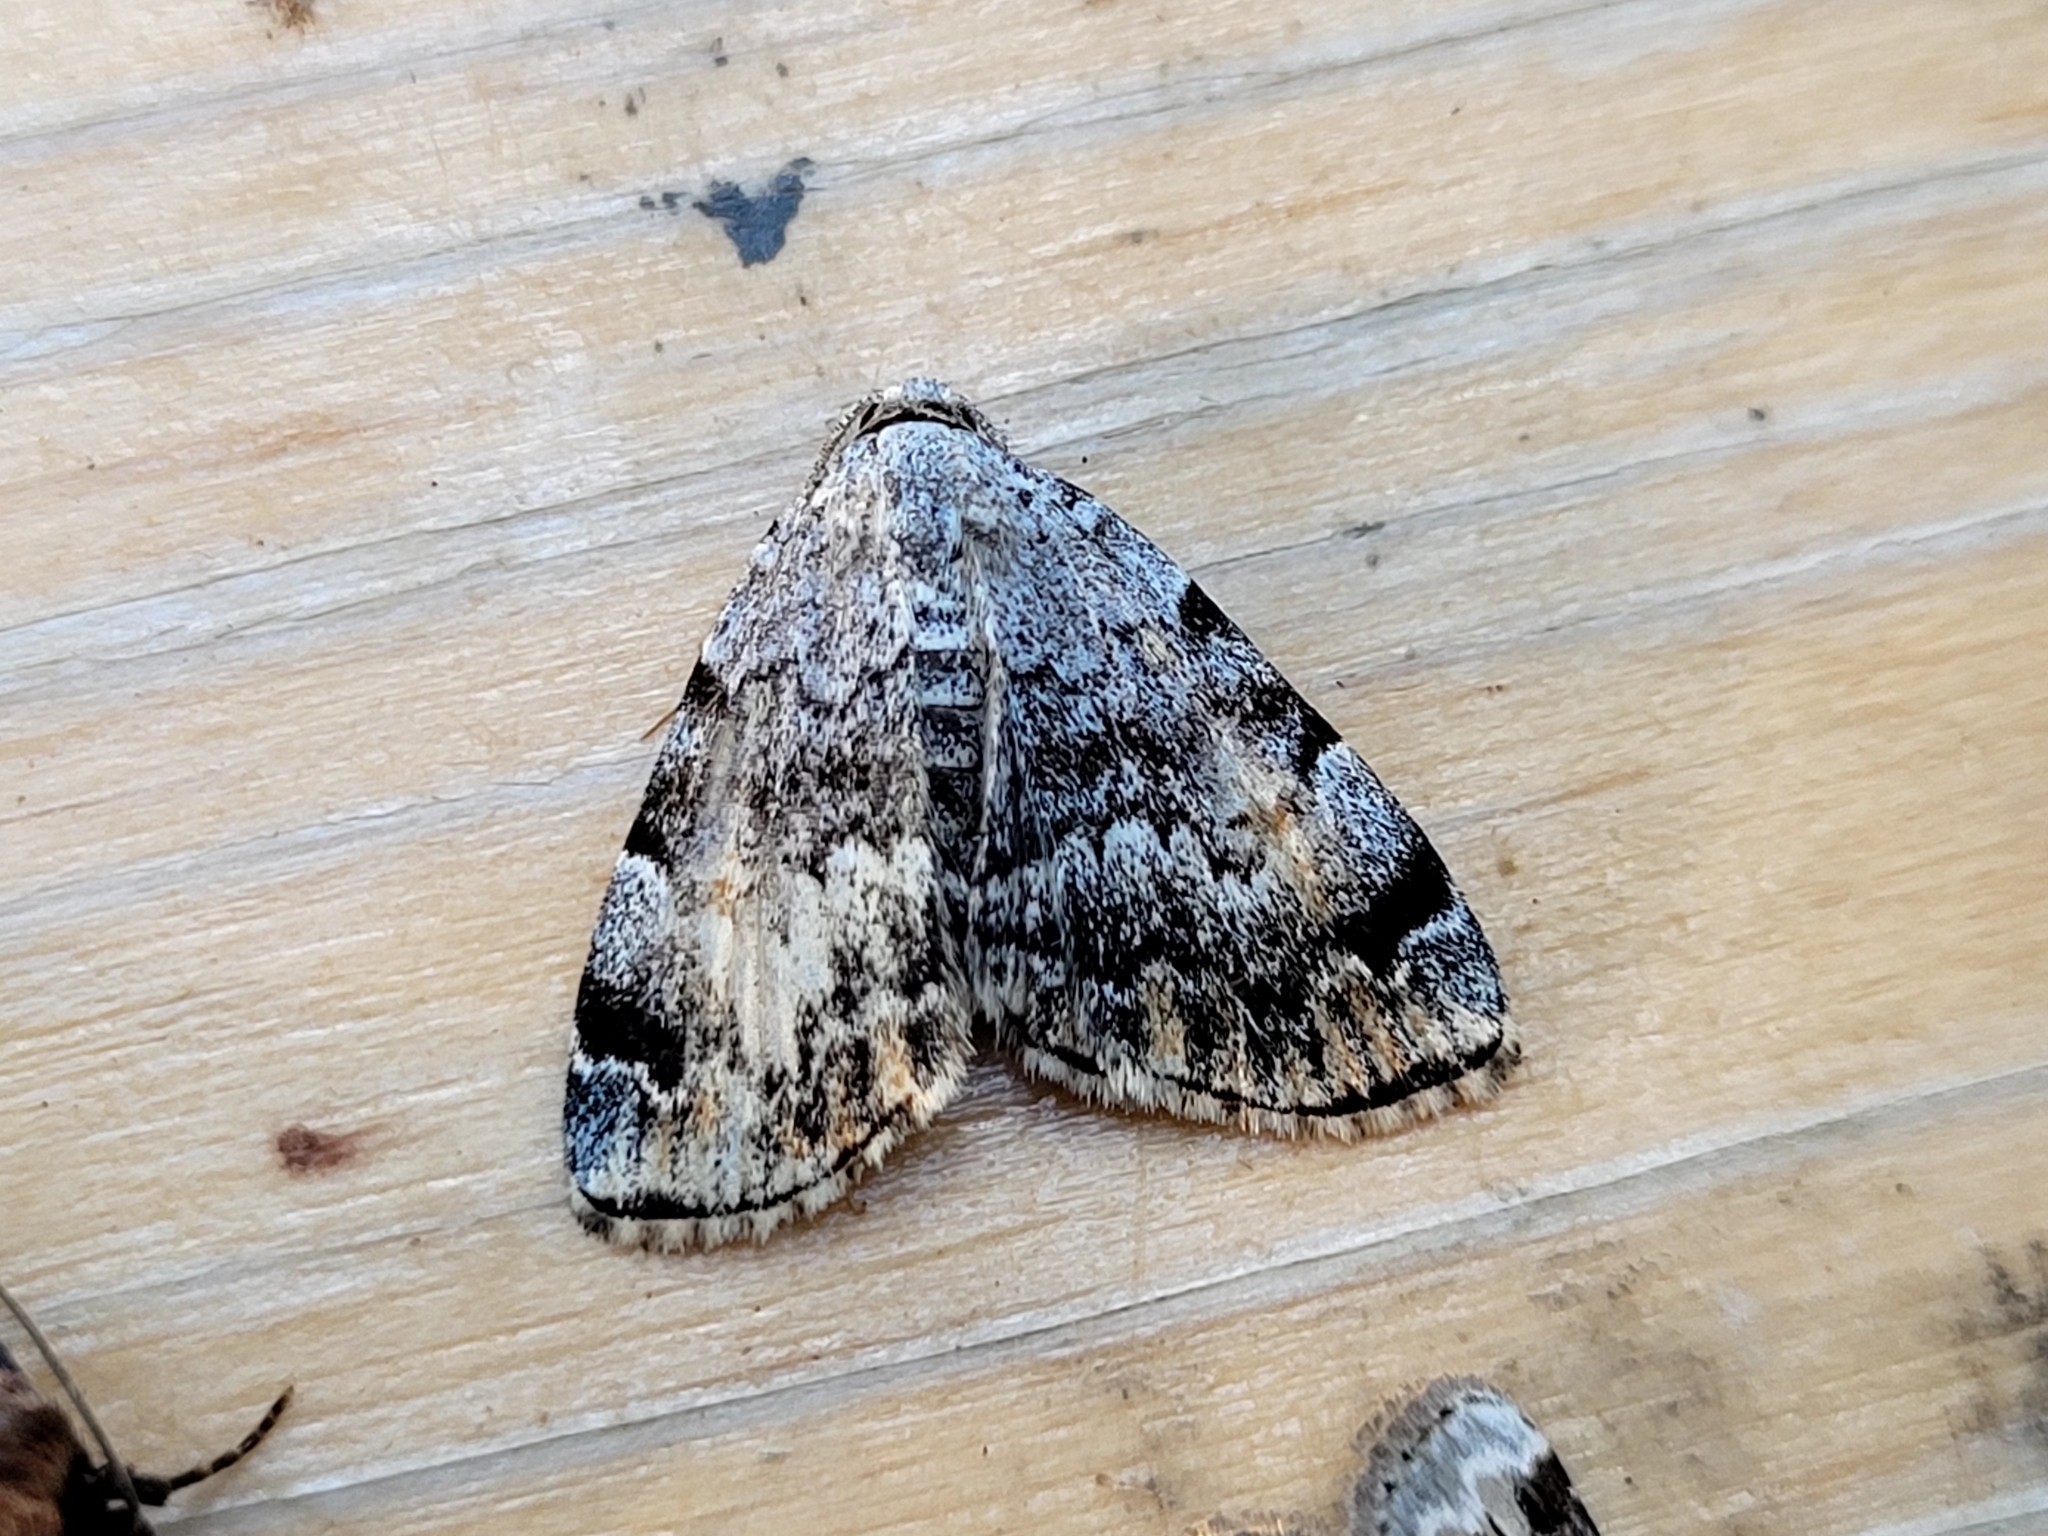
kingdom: Animalia
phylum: Arthropoda
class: Insecta
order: Lepidoptera
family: Erebidae
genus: Idia
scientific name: Idia americalis
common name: American idia moth
